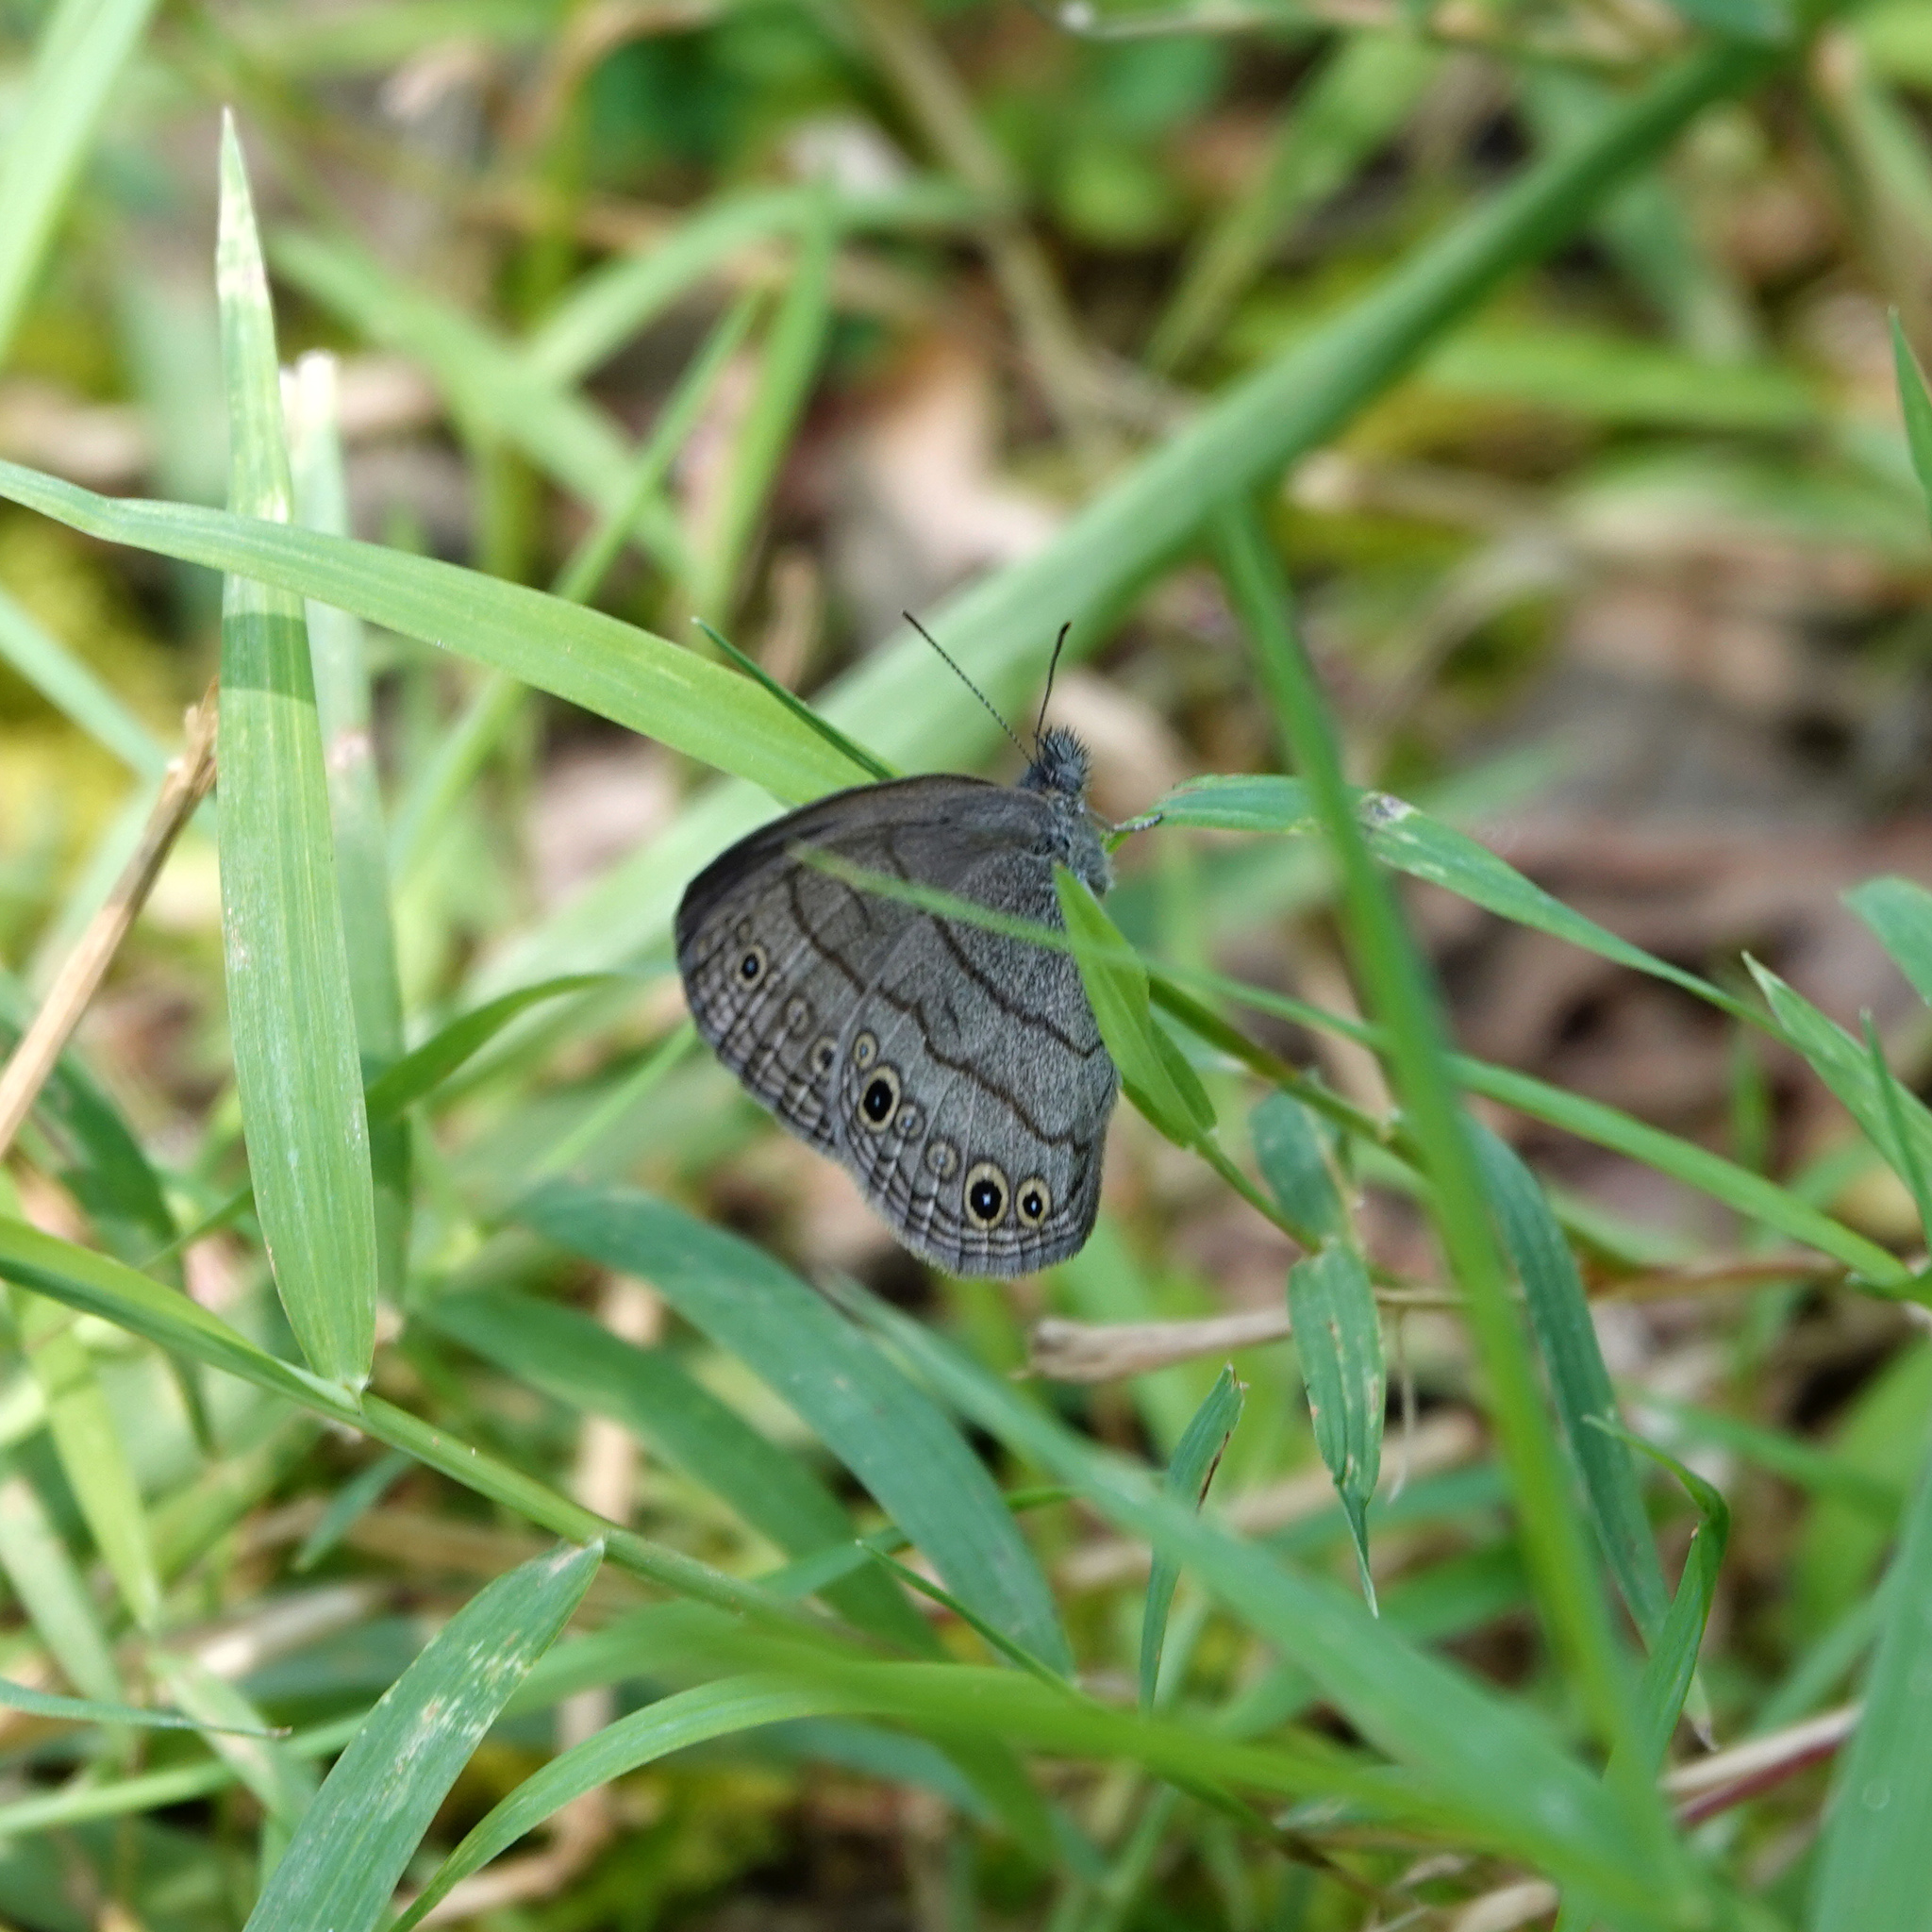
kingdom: Animalia
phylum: Arthropoda
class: Insecta
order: Lepidoptera
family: Nymphalidae
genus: Hermeuptychia
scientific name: Hermeuptychia hermes
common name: Hermes satyr
